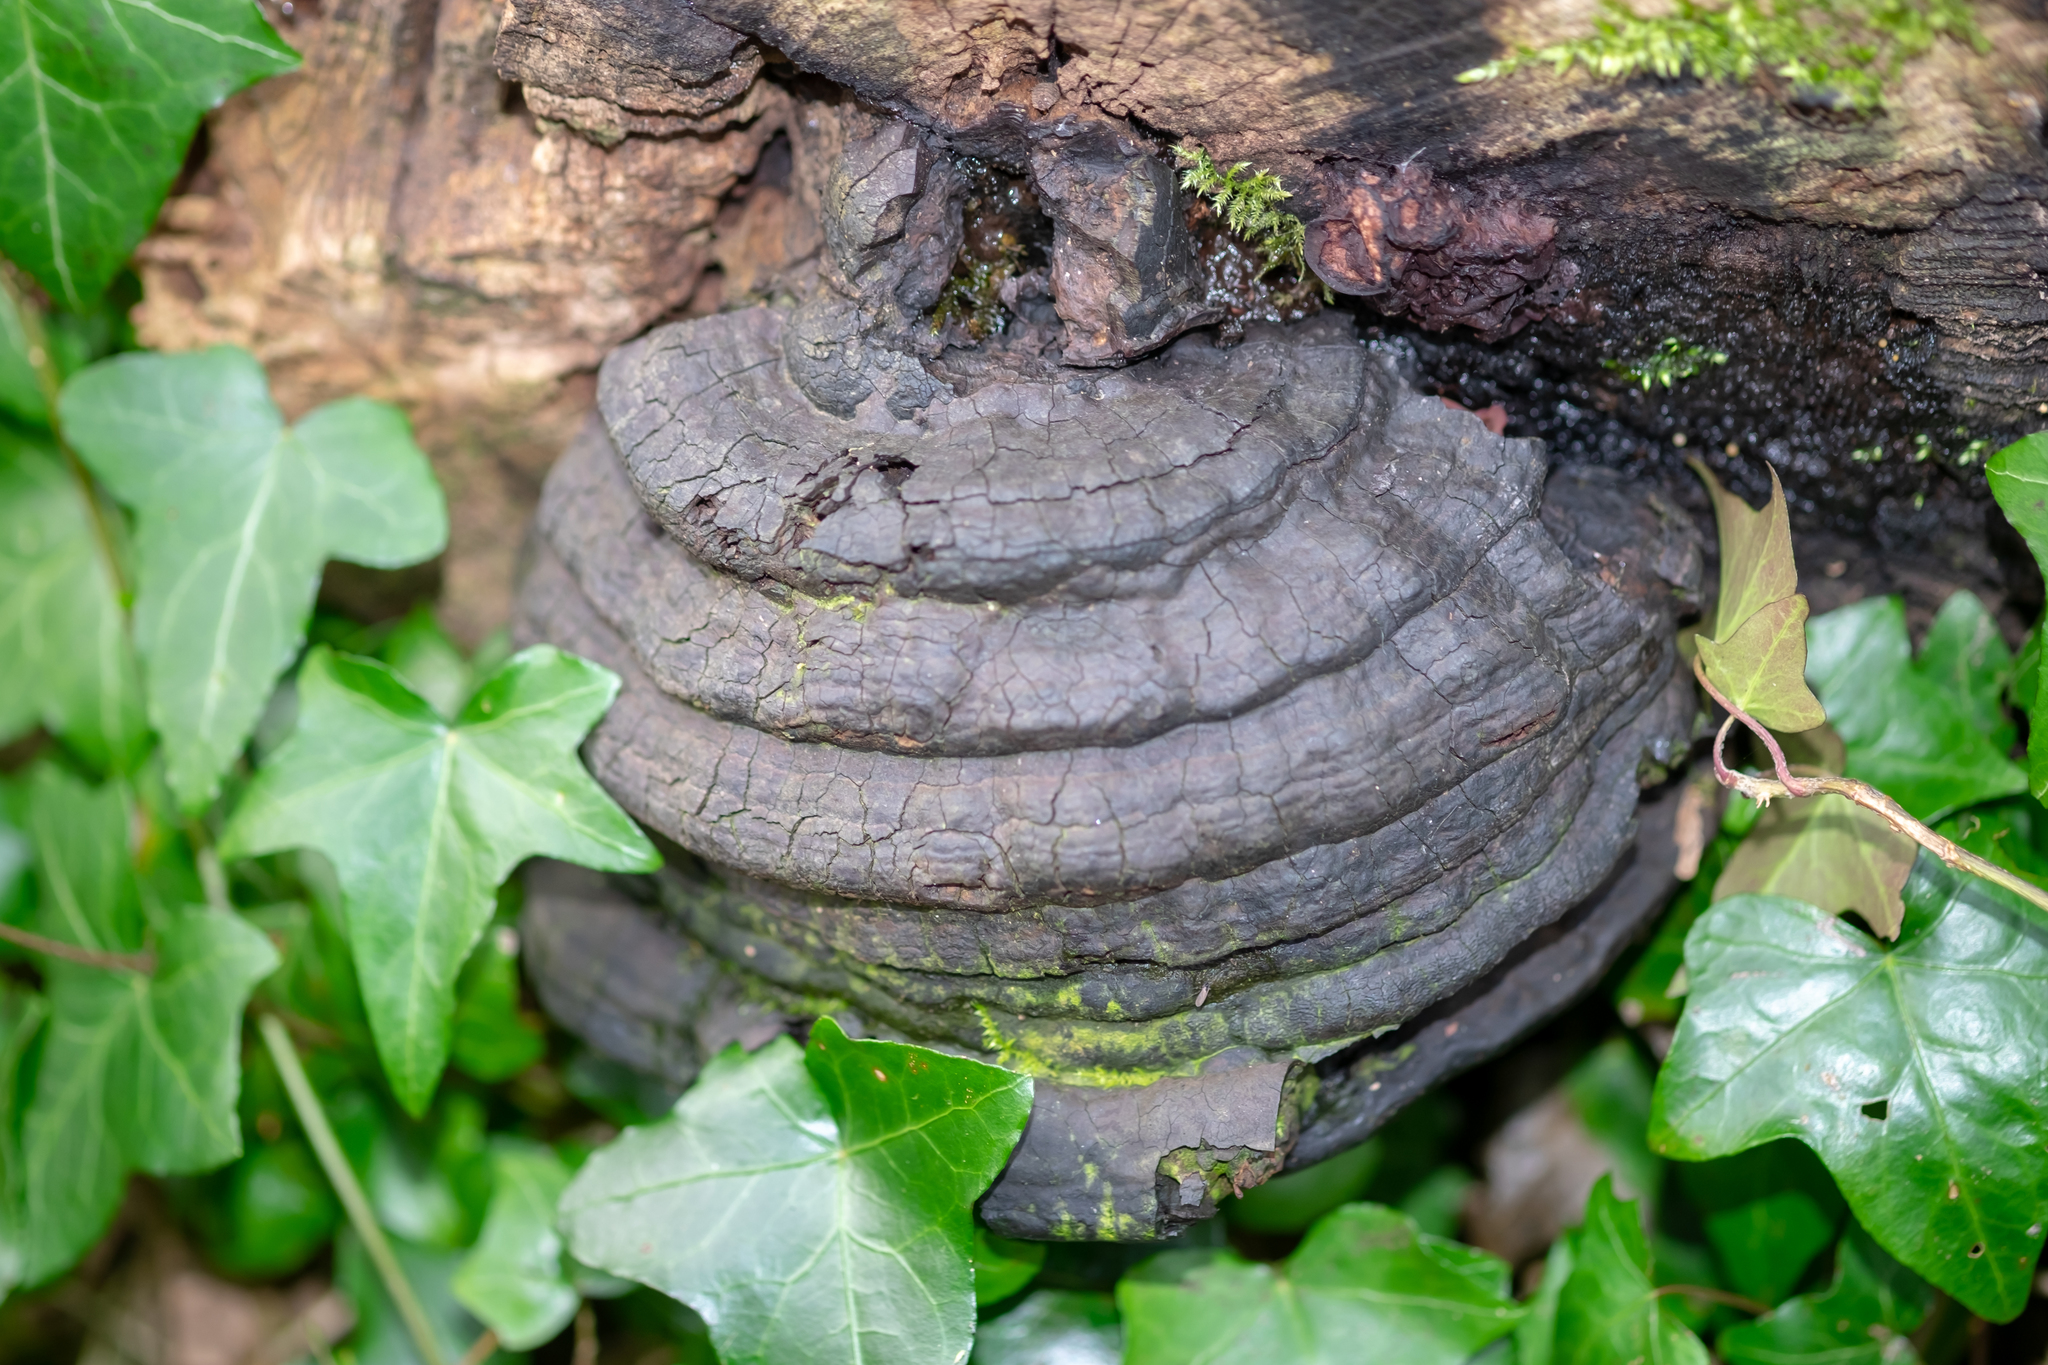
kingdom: Fungi
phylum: Basidiomycota
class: Agaricomycetes
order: Polyporales
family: Polyporaceae
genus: Fomes
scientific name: Fomes fomentarius
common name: Hoof fungus
